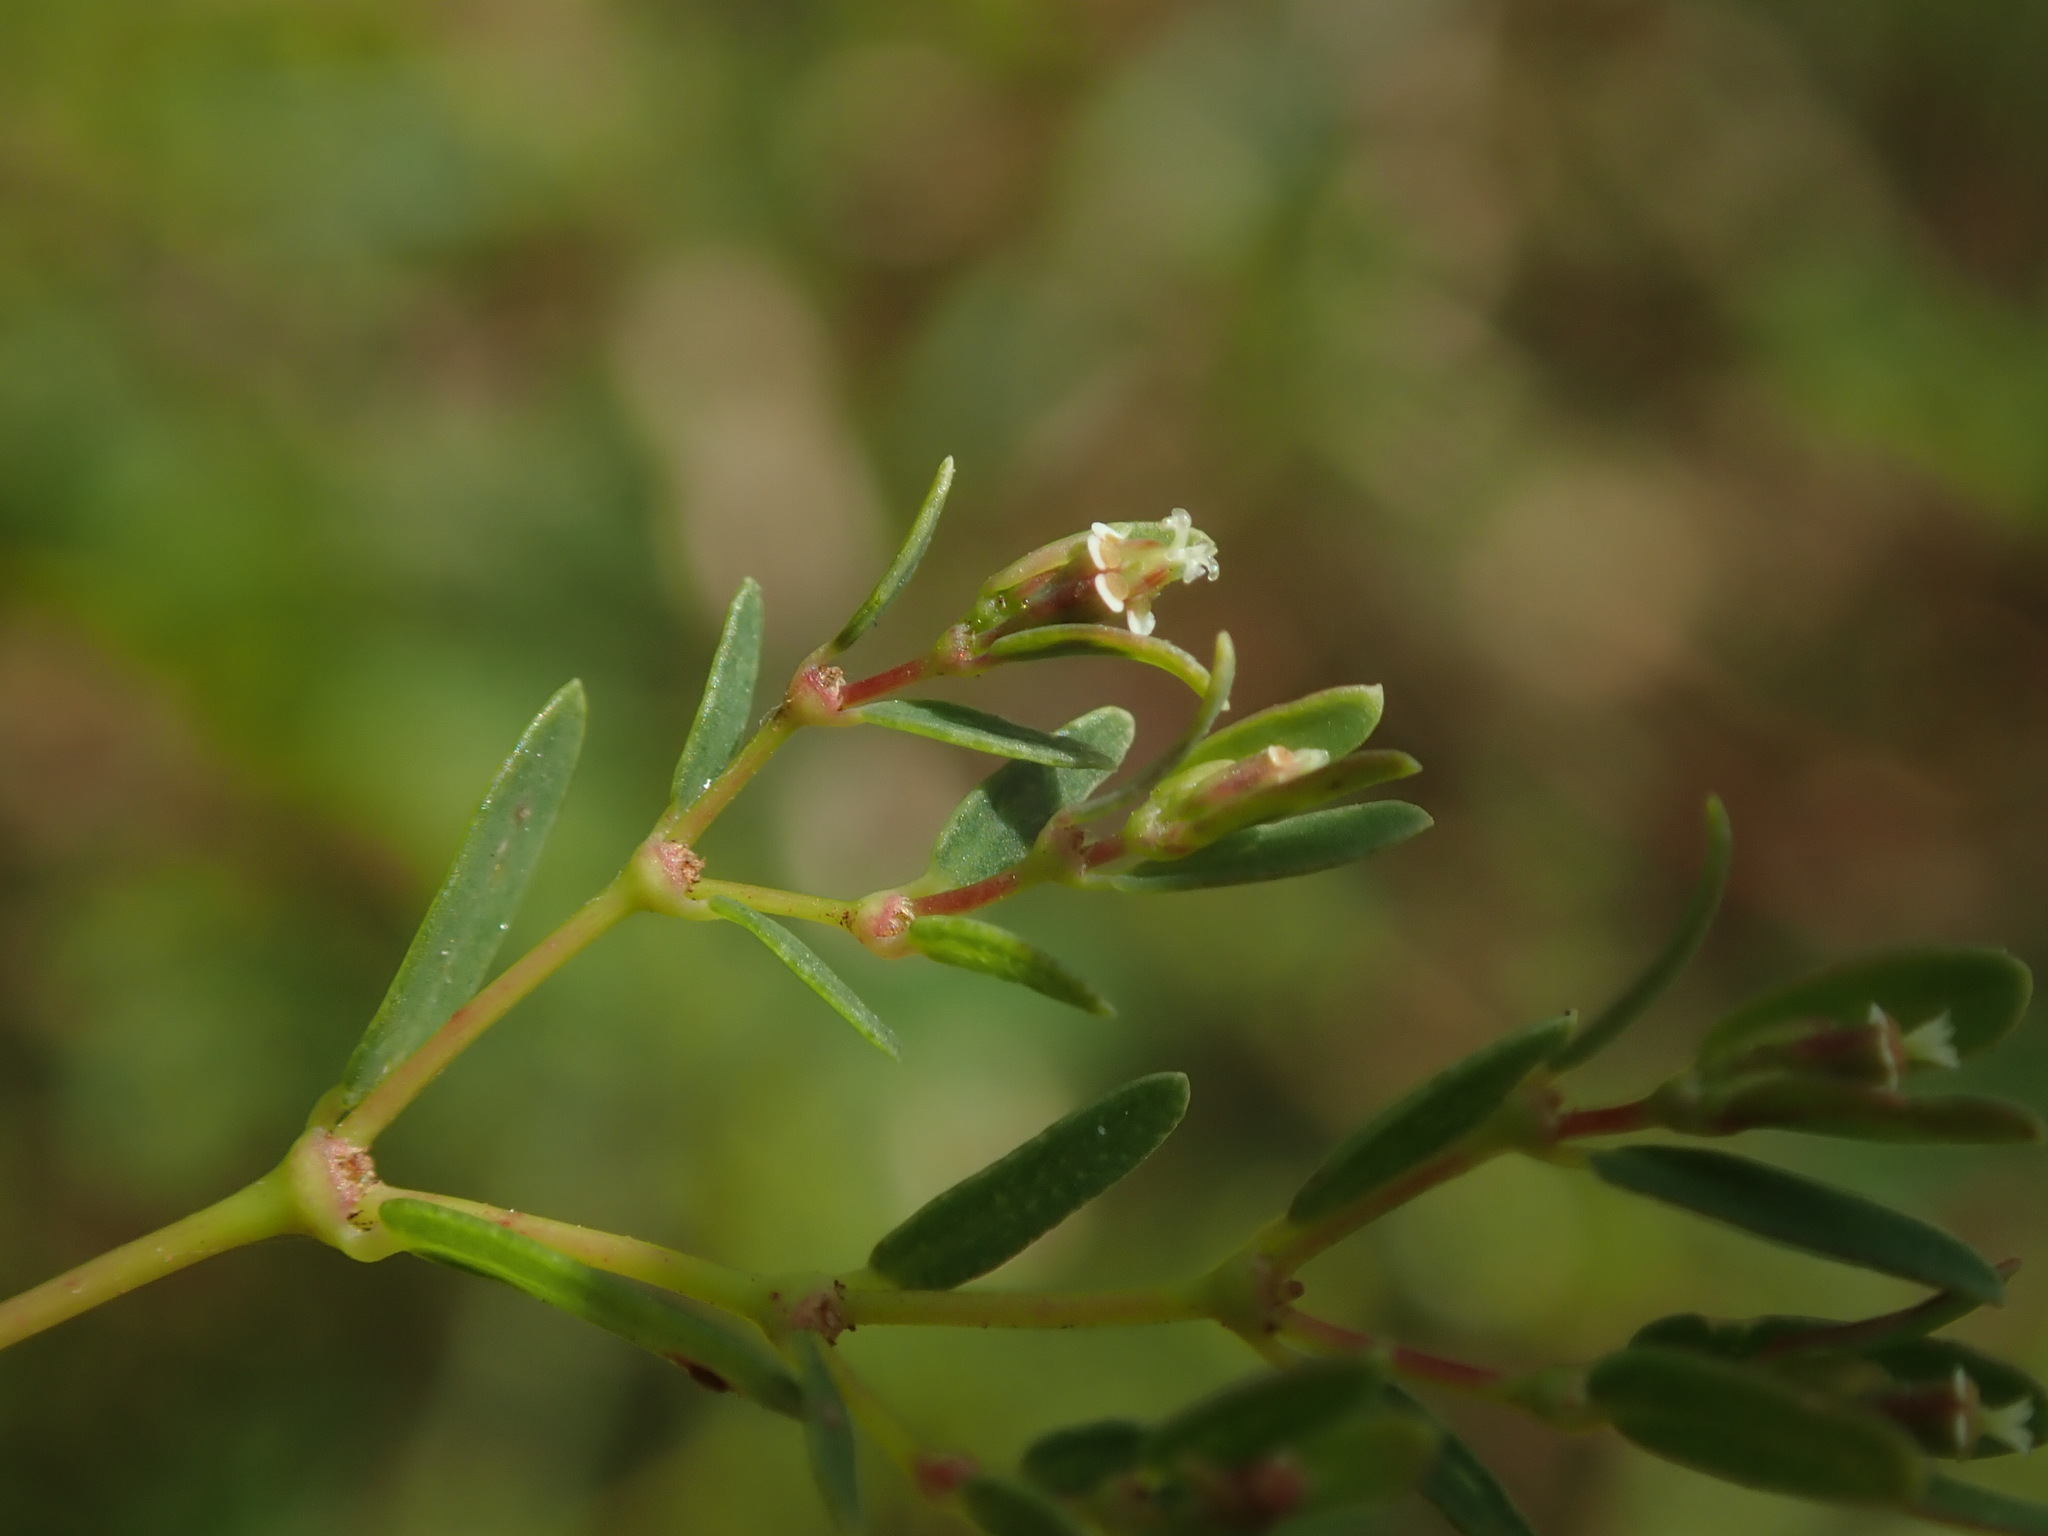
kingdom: Plantae
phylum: Tracheophyta
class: Magnoliopsida
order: Malpighiales
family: Euphorbiaceae
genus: Euphorbia
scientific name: Euphorbia hyssopifolia
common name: Hyssopleaf sandmat
